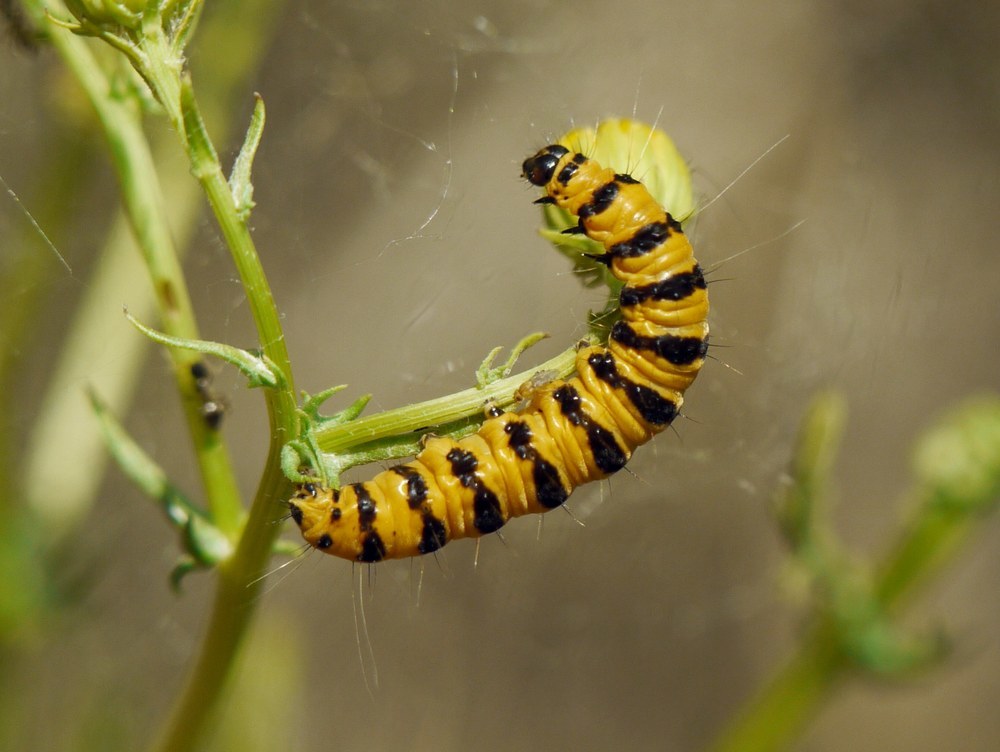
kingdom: Animalia
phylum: Arthropoda
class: Insecta
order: Lepidoptera
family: Erebidae
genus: Tyria
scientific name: Tyria jacobaeae
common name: Cinnabar
